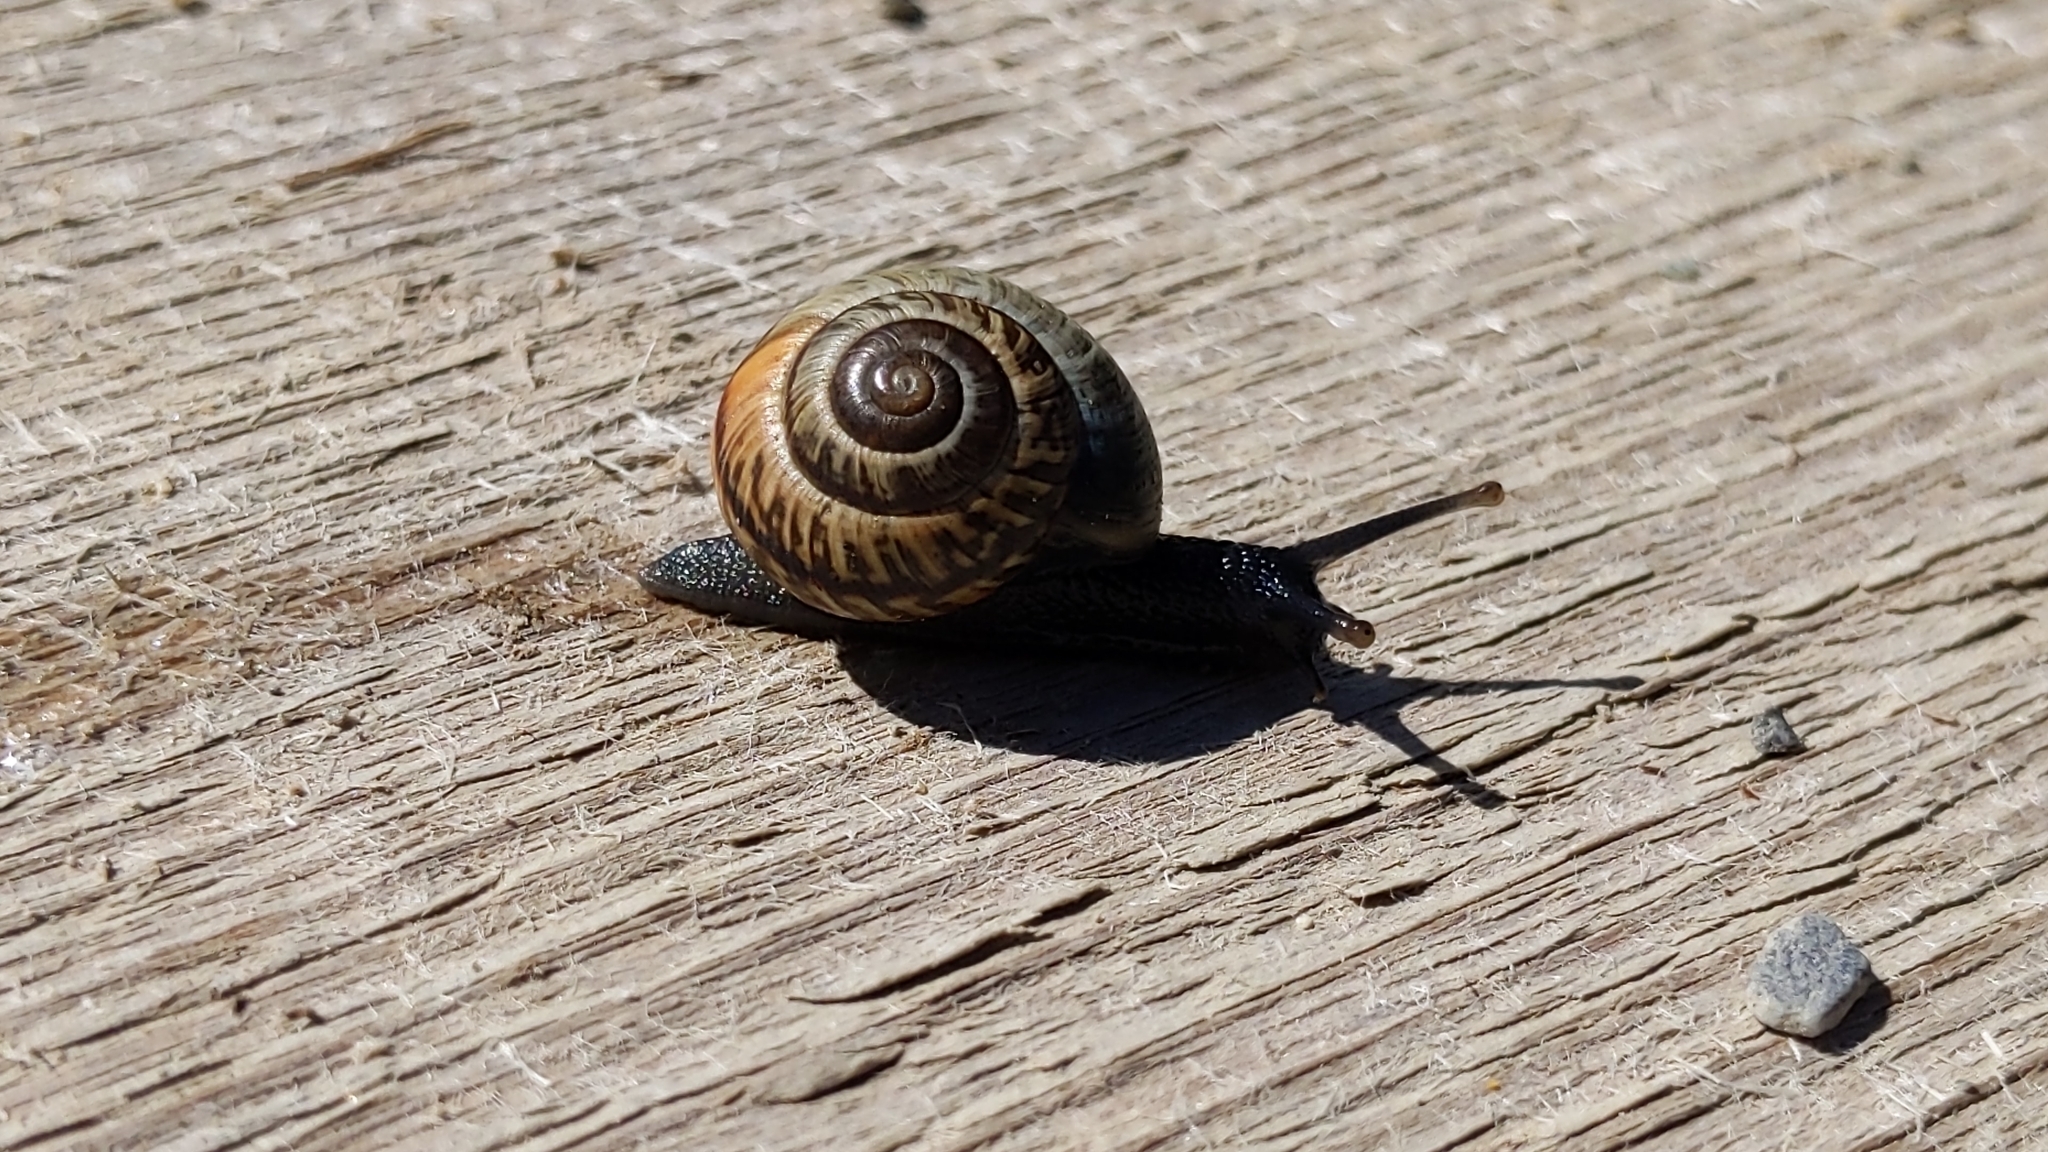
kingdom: Animalia
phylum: Mollusca
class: Gastropoda
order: Stylommatophora
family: Helicidae
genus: Arianta
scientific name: Arianta arbustorum
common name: Copse snail
